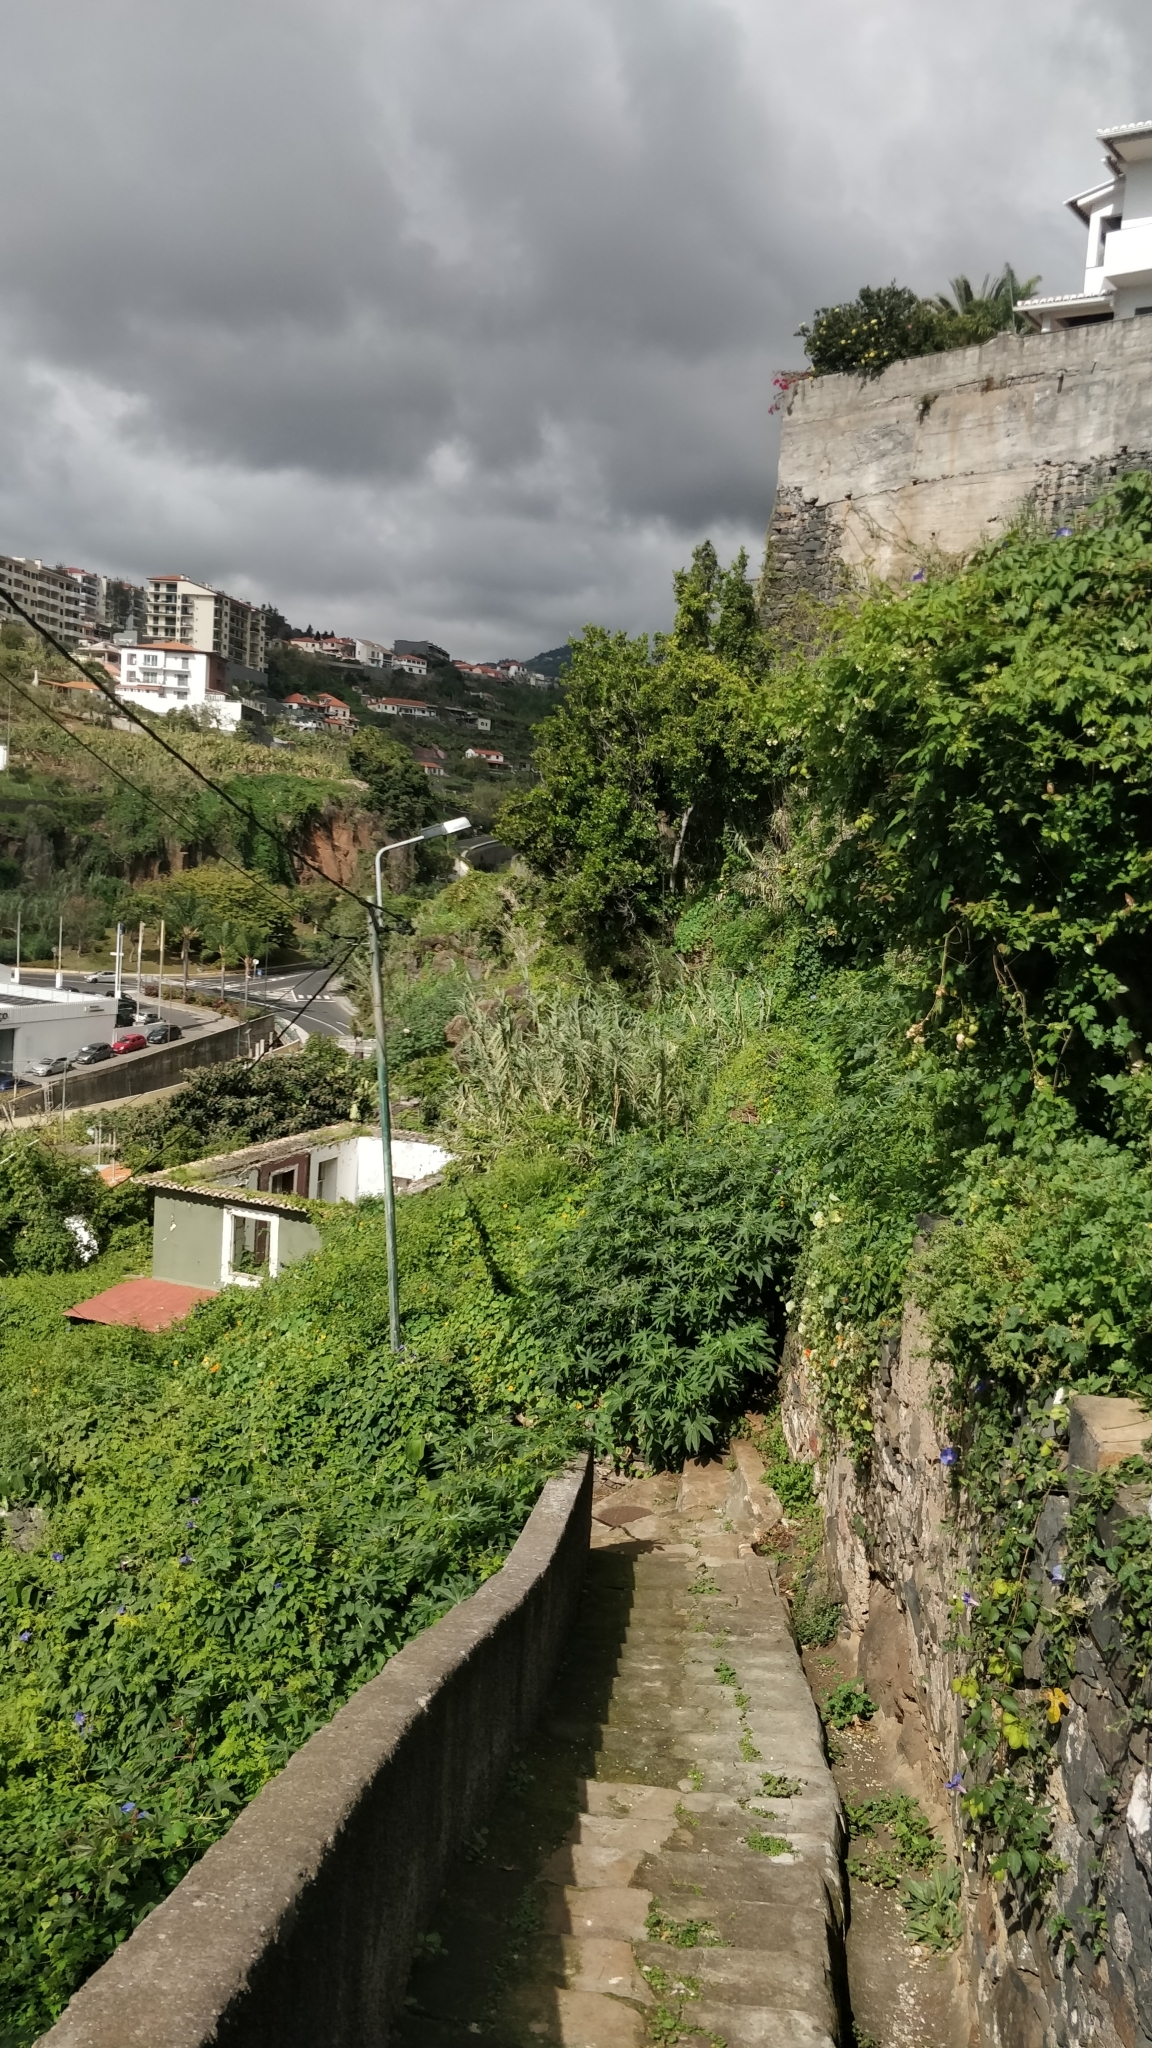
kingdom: Plantae
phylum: Tracheophyta
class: Magnoliopsida
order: Malpighiales
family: Euphorbiaceae
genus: Ricinus
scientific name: Ricinus communis
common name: Castor-oil-plant
